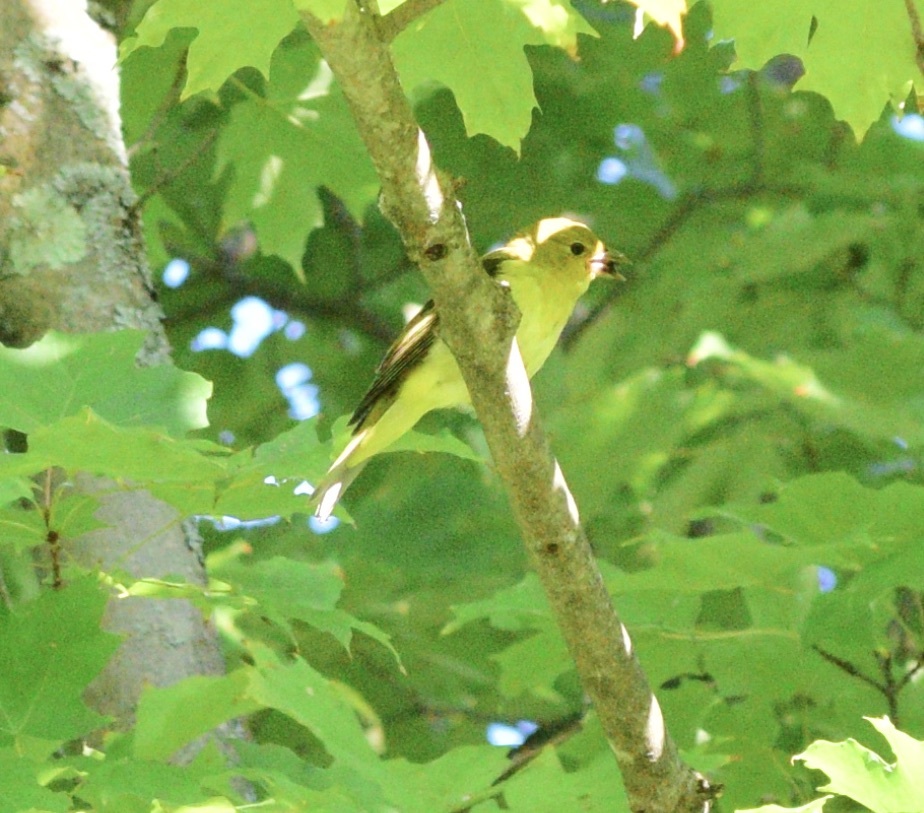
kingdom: Animalia
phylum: Chordata
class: Aves
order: Passeriformes
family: Cardinalidae
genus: Piranga
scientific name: Piranga olivacea
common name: Scarlet tanager
